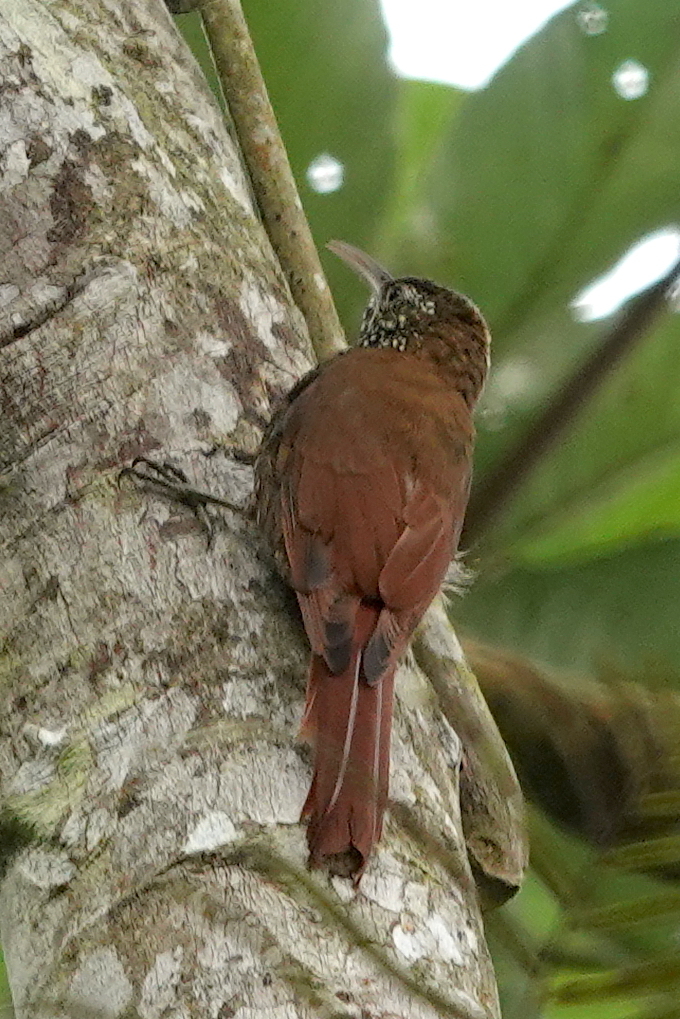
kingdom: Animalia
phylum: Chordata
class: Aves
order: Passeriformes
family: Furnariidae
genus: Lepidocolaptes
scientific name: Lepidocolaptes lacrymiger
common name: Montane woodcreeper
